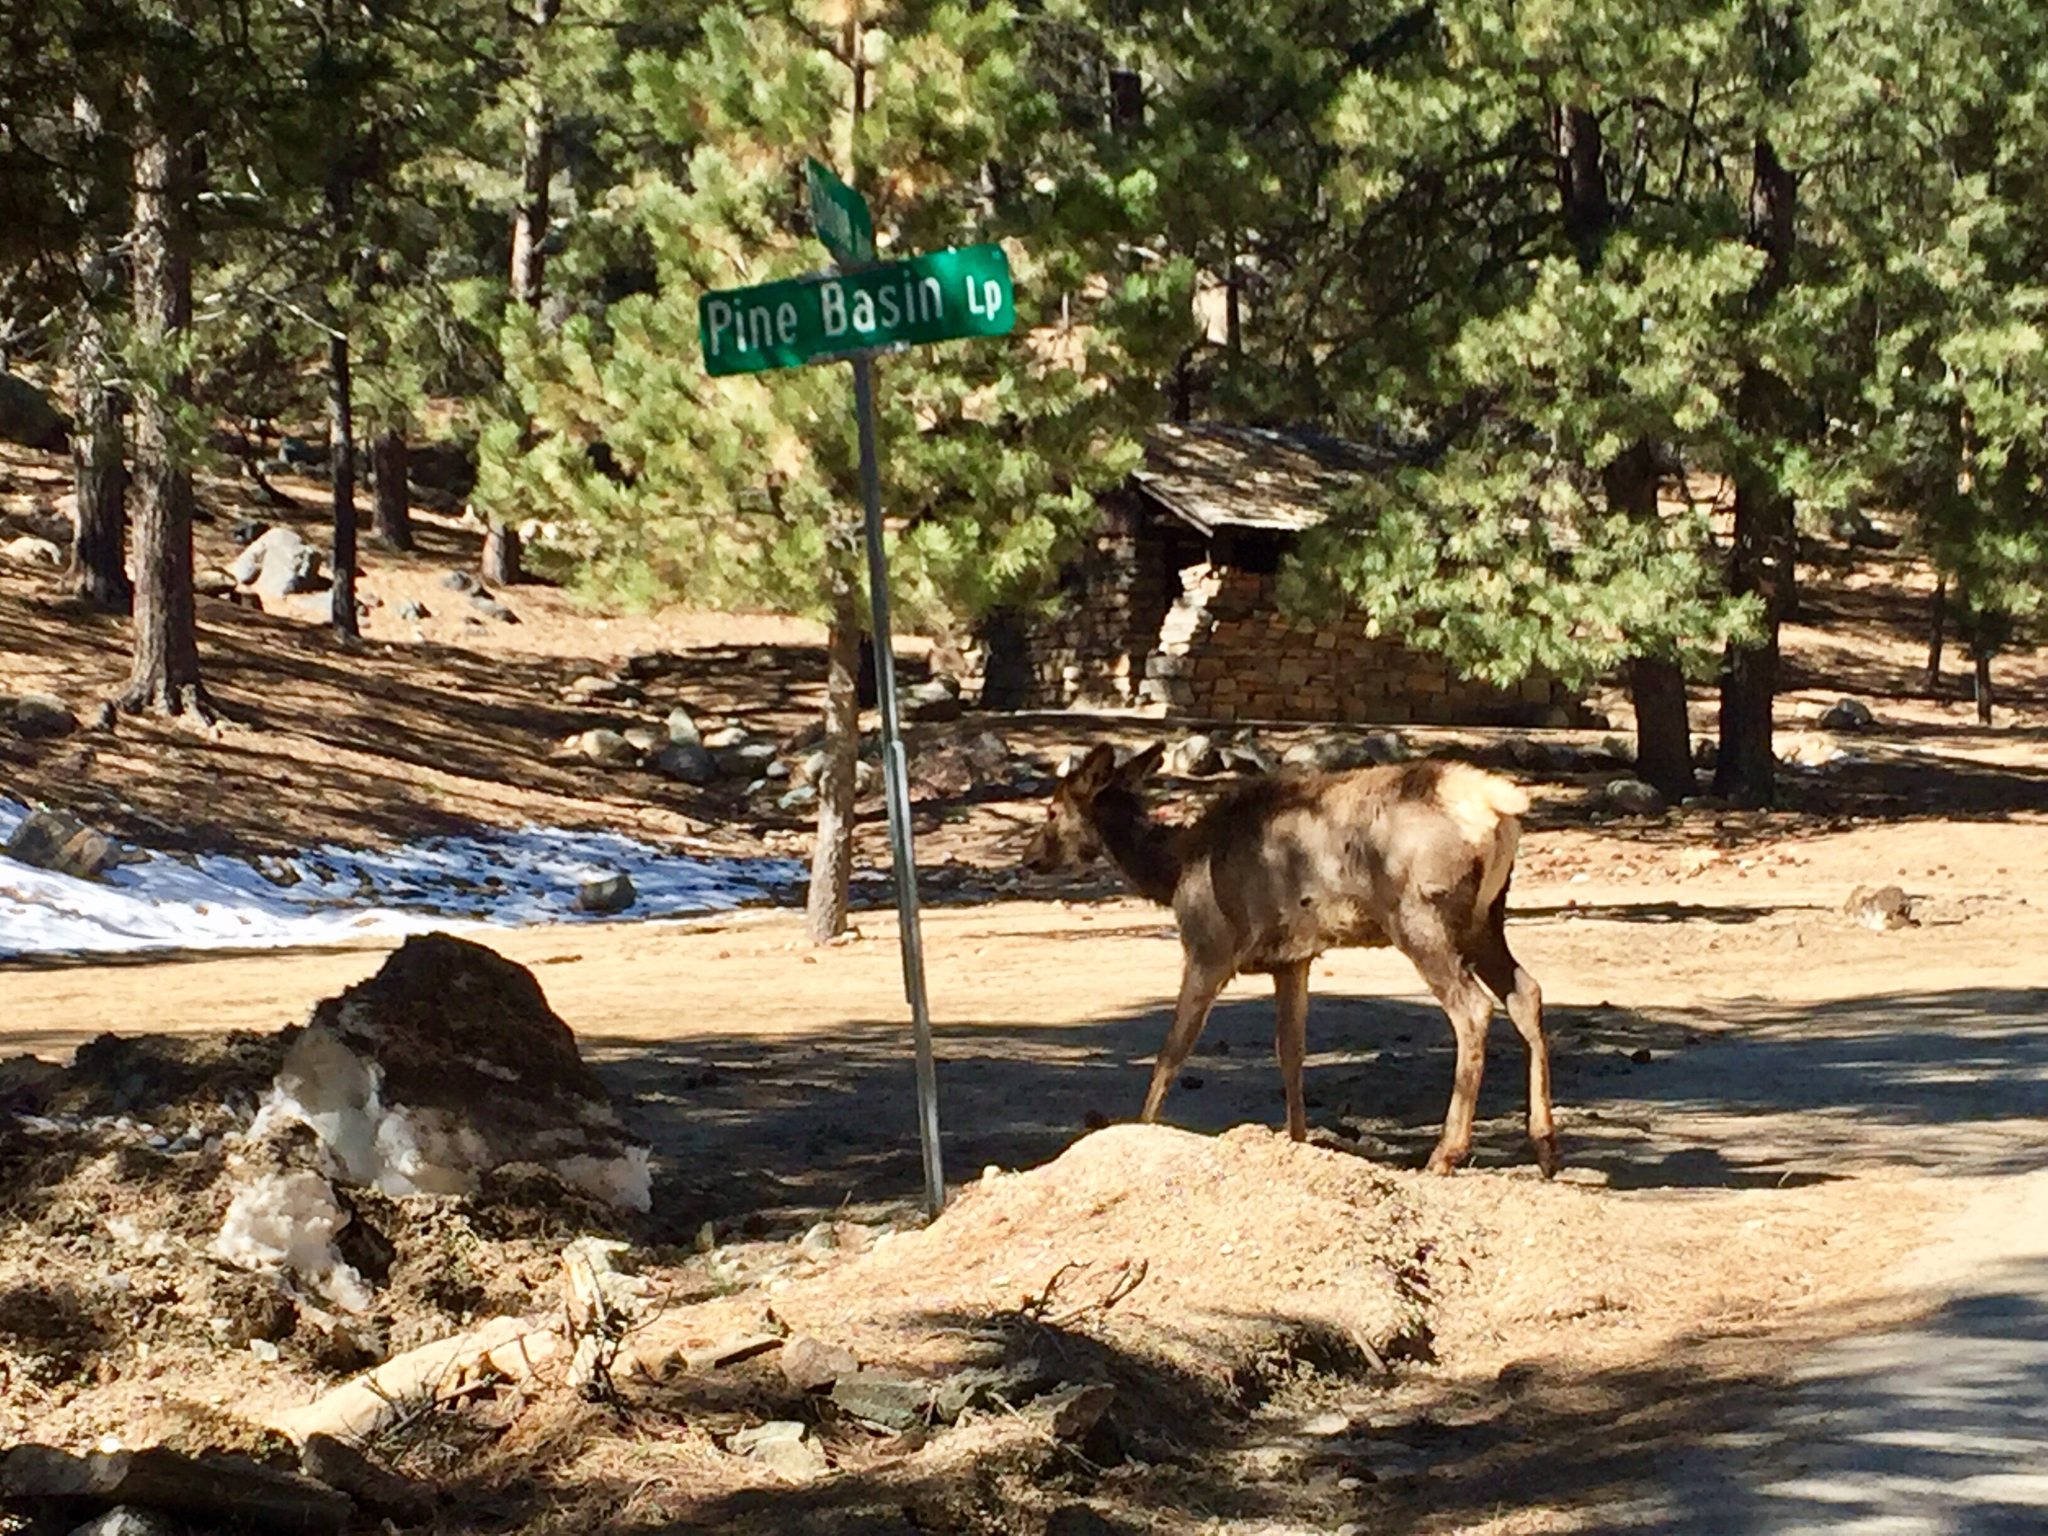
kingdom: Animalia
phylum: Chordata
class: Mammalia
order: Artiodactyla
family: Cervidae
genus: Cervus
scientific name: Cervus elaphus
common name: Red deer
